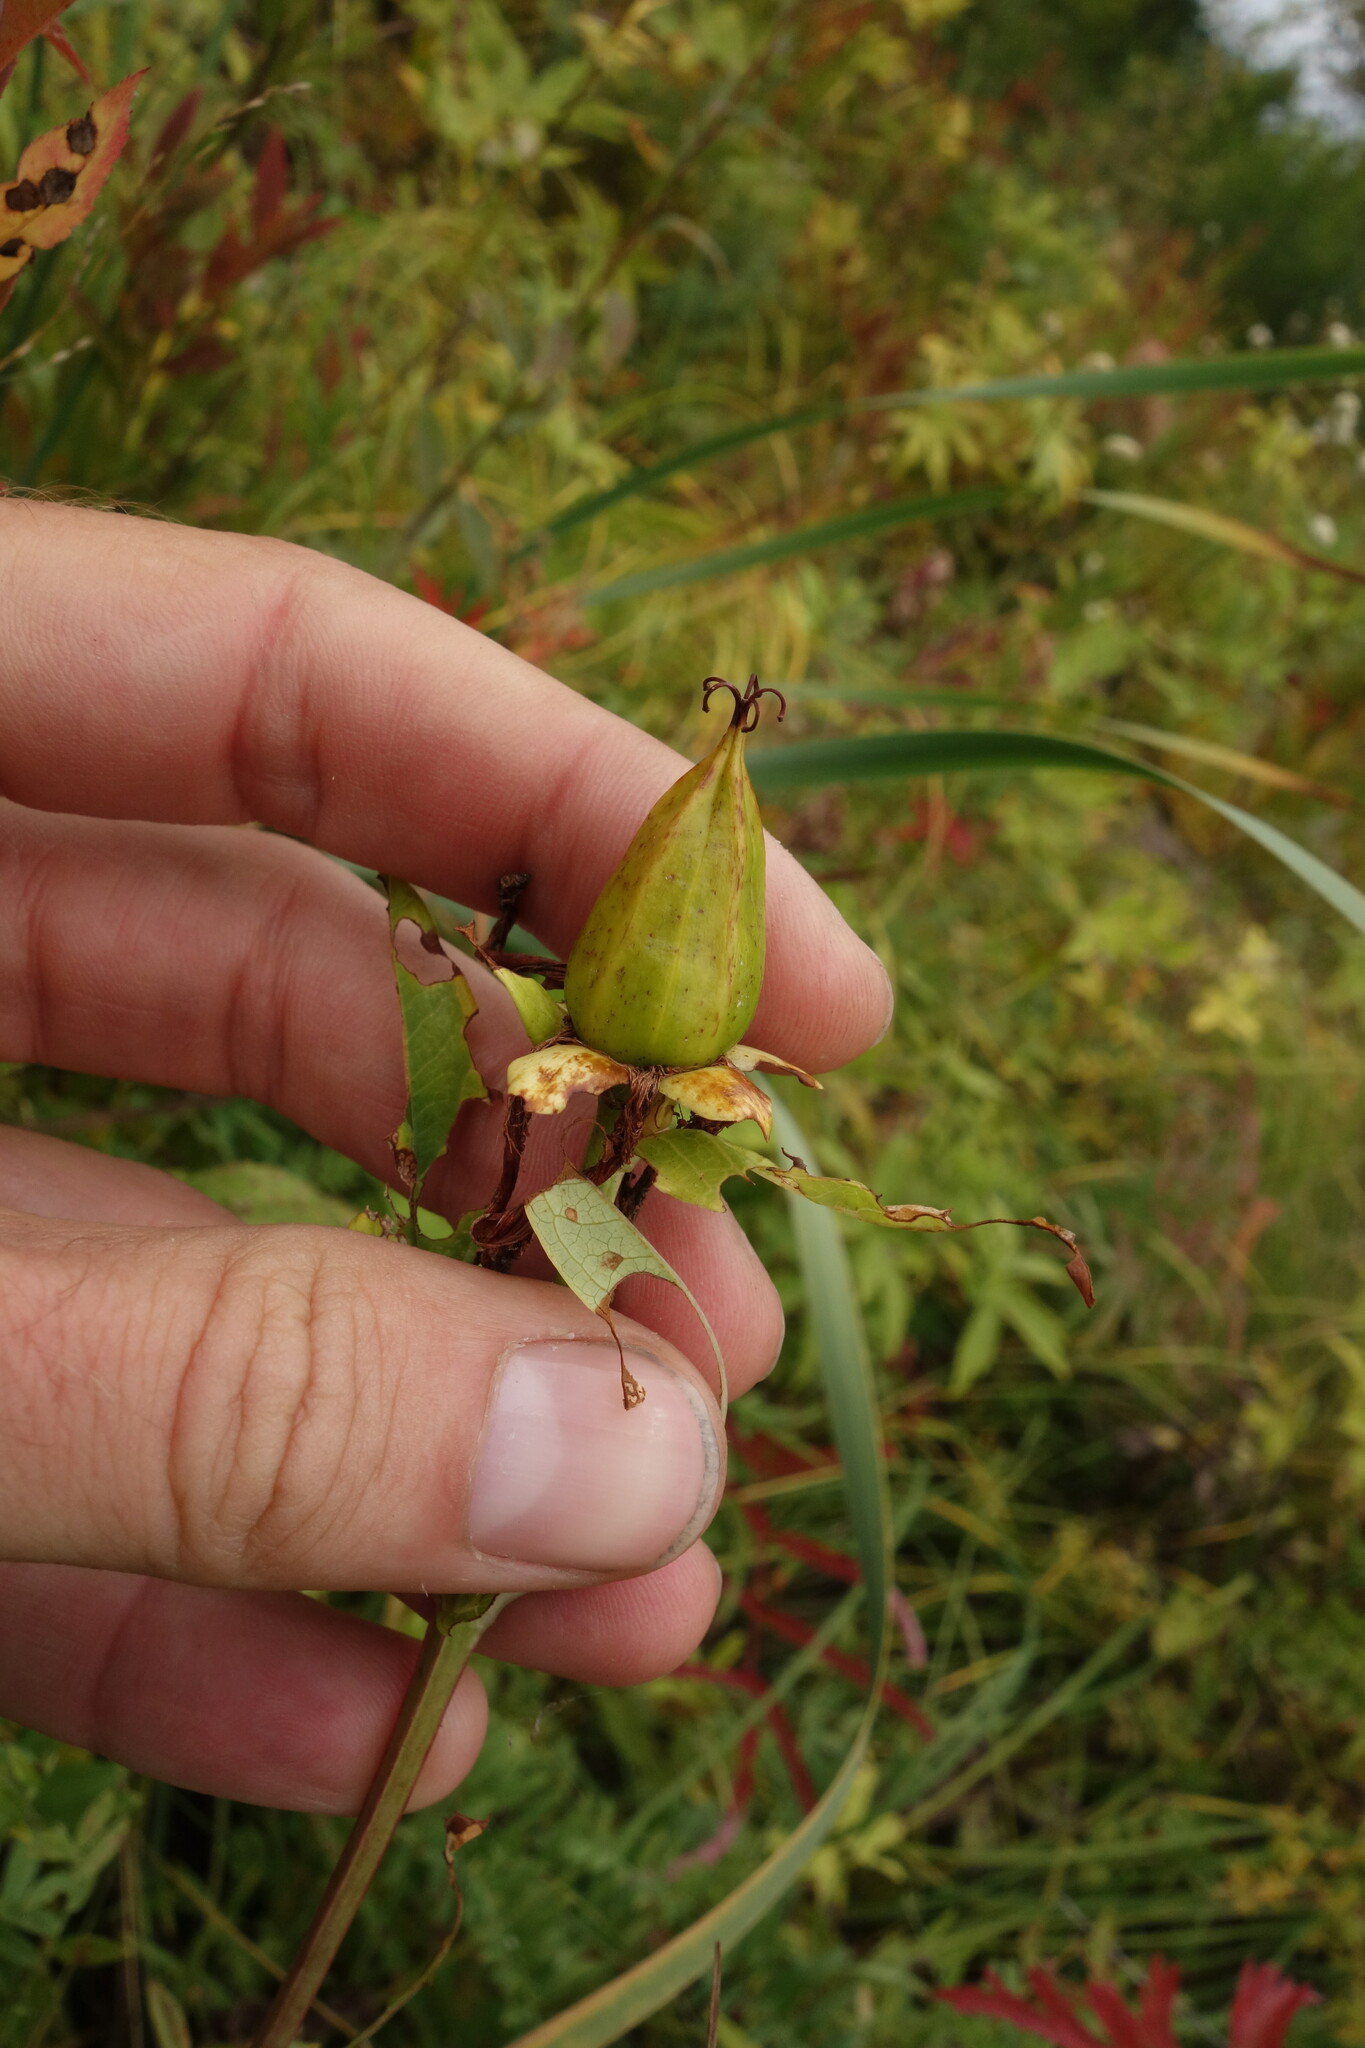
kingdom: Plantae
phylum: Tracheophyta
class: Magnoliopsida
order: Malpighiales
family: Hypericaceae
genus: Hypericum
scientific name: Hypericum ascyron
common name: Giant st. john's-wort
